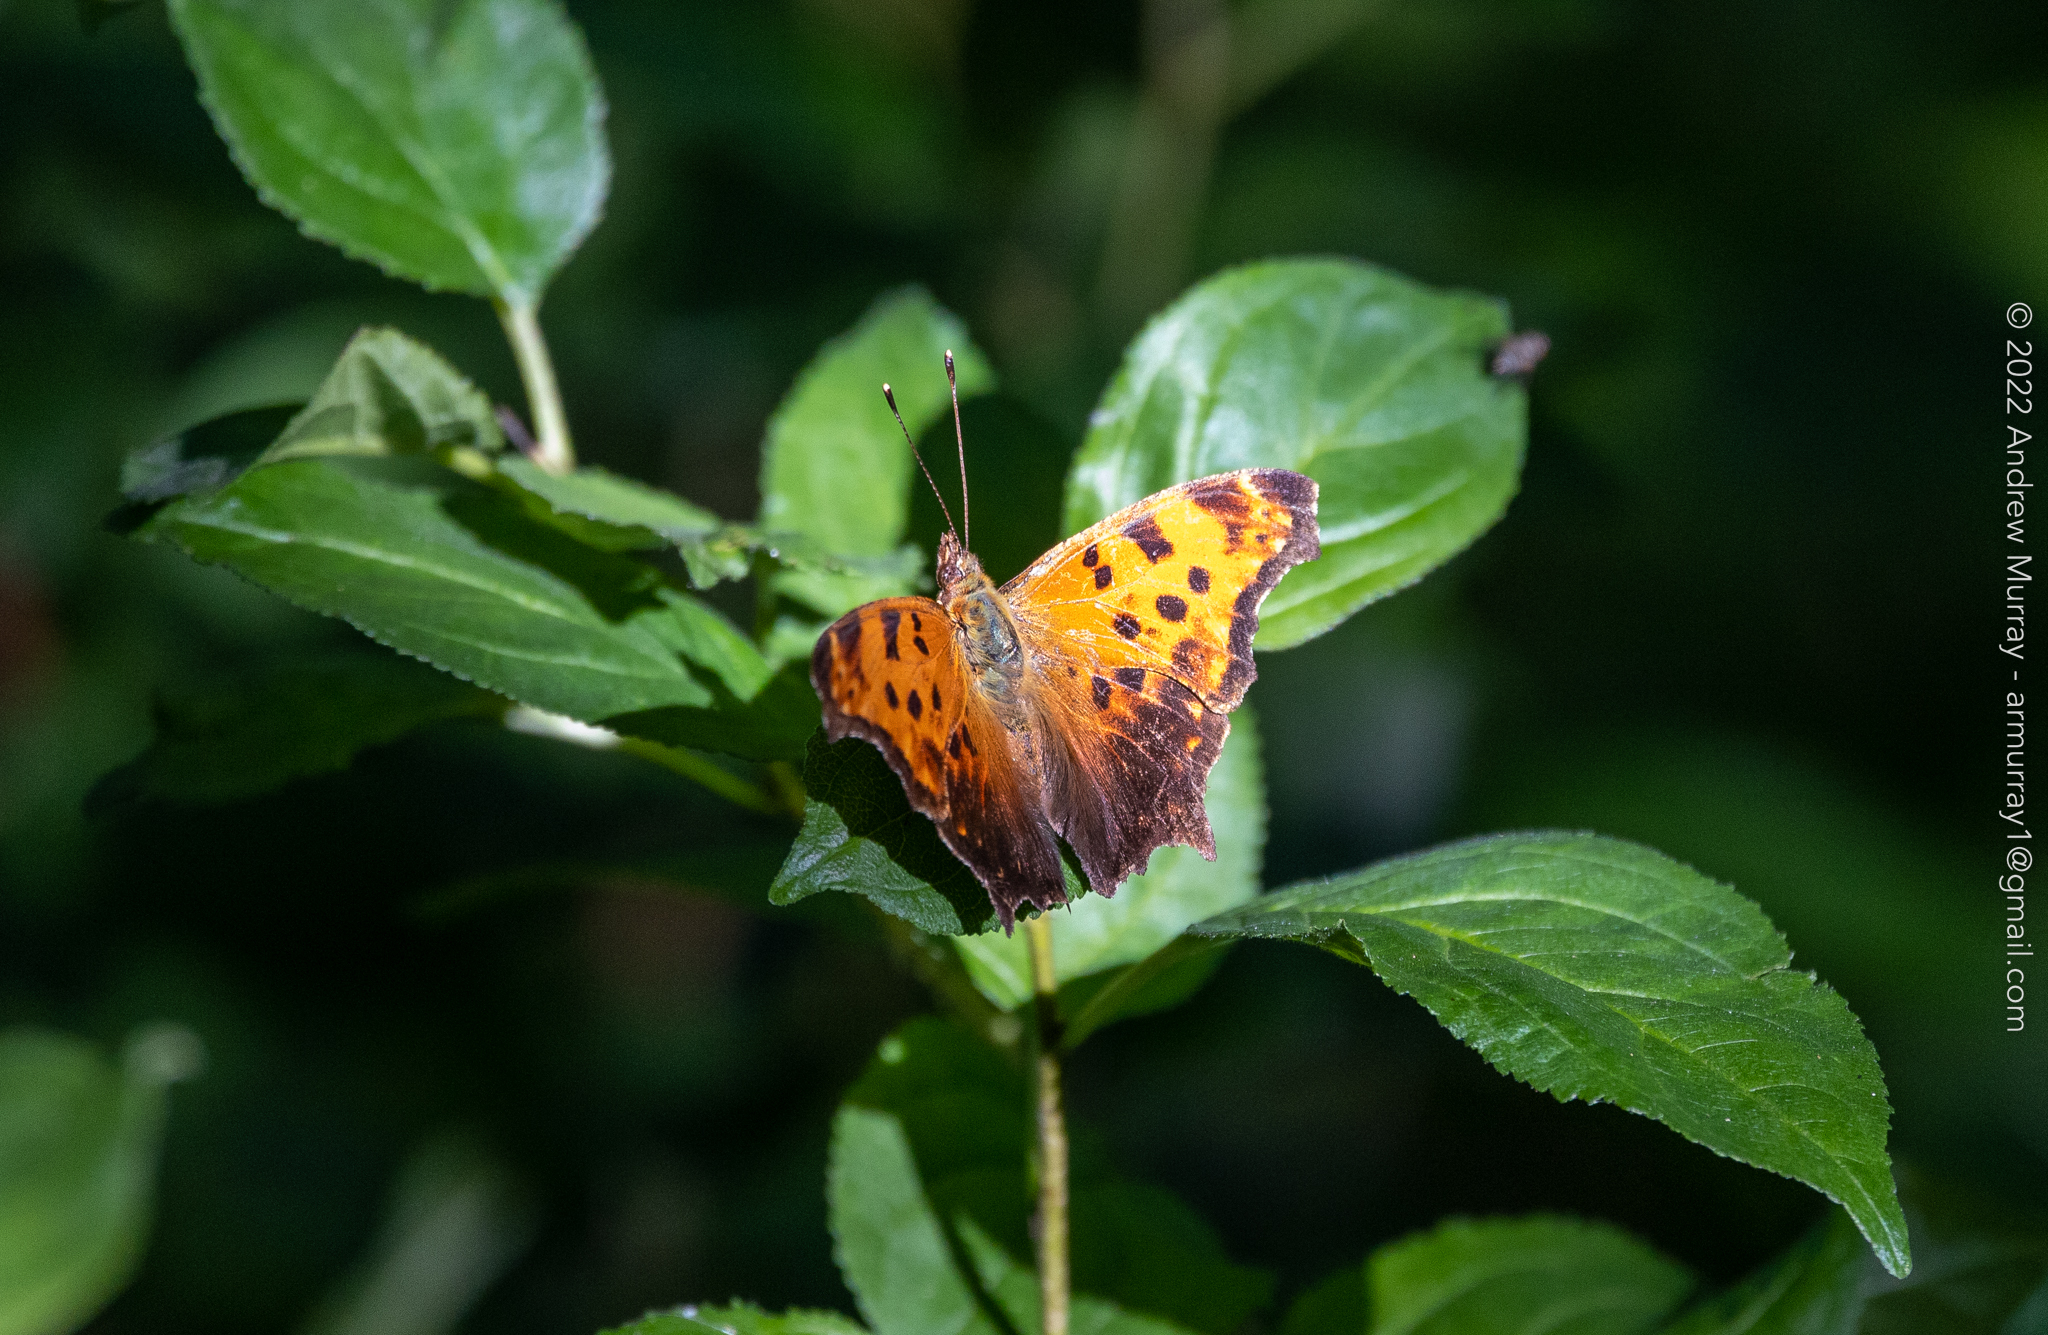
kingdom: Animalia
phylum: Arthropoda
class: Insecta
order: Lepidoptera
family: Nymphalidae
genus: Polygonia
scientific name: Polygonia comma
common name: Eastern comma
